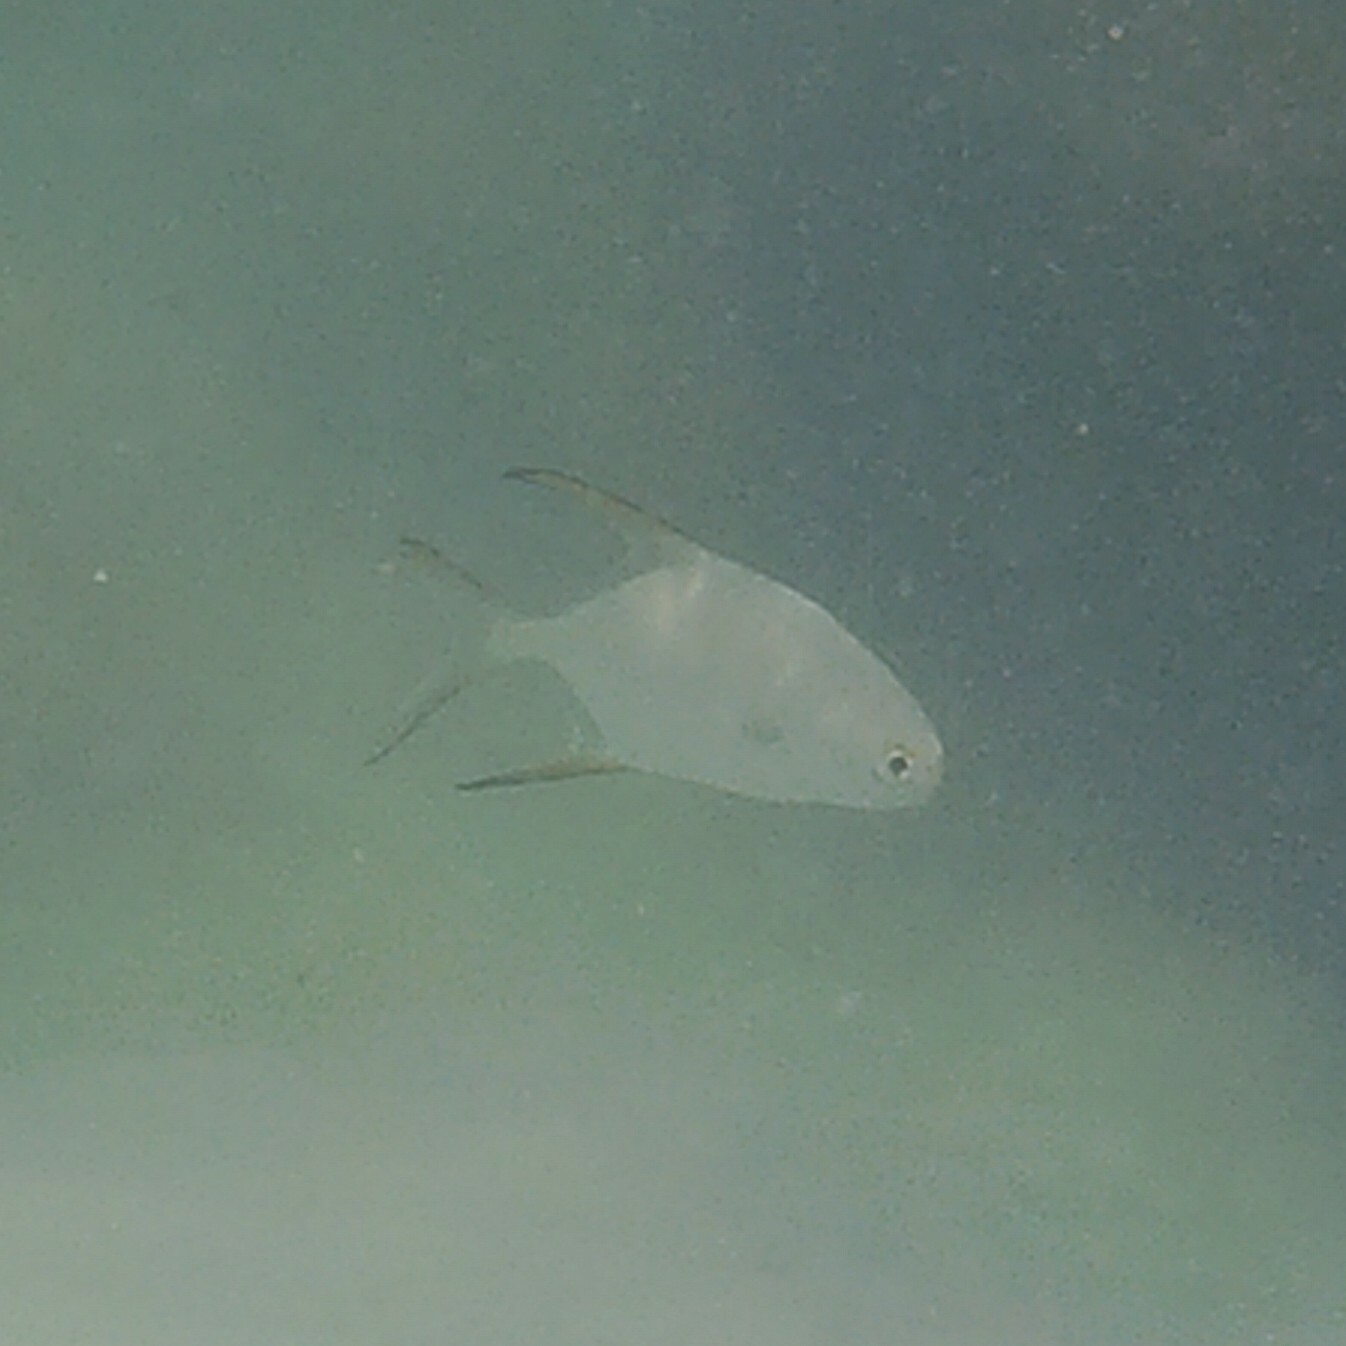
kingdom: Animalia
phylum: Chordata
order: Perciformes
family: Carangidae
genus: Trachinotus
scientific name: Trachinotus blochii
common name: Snubnose pompano
